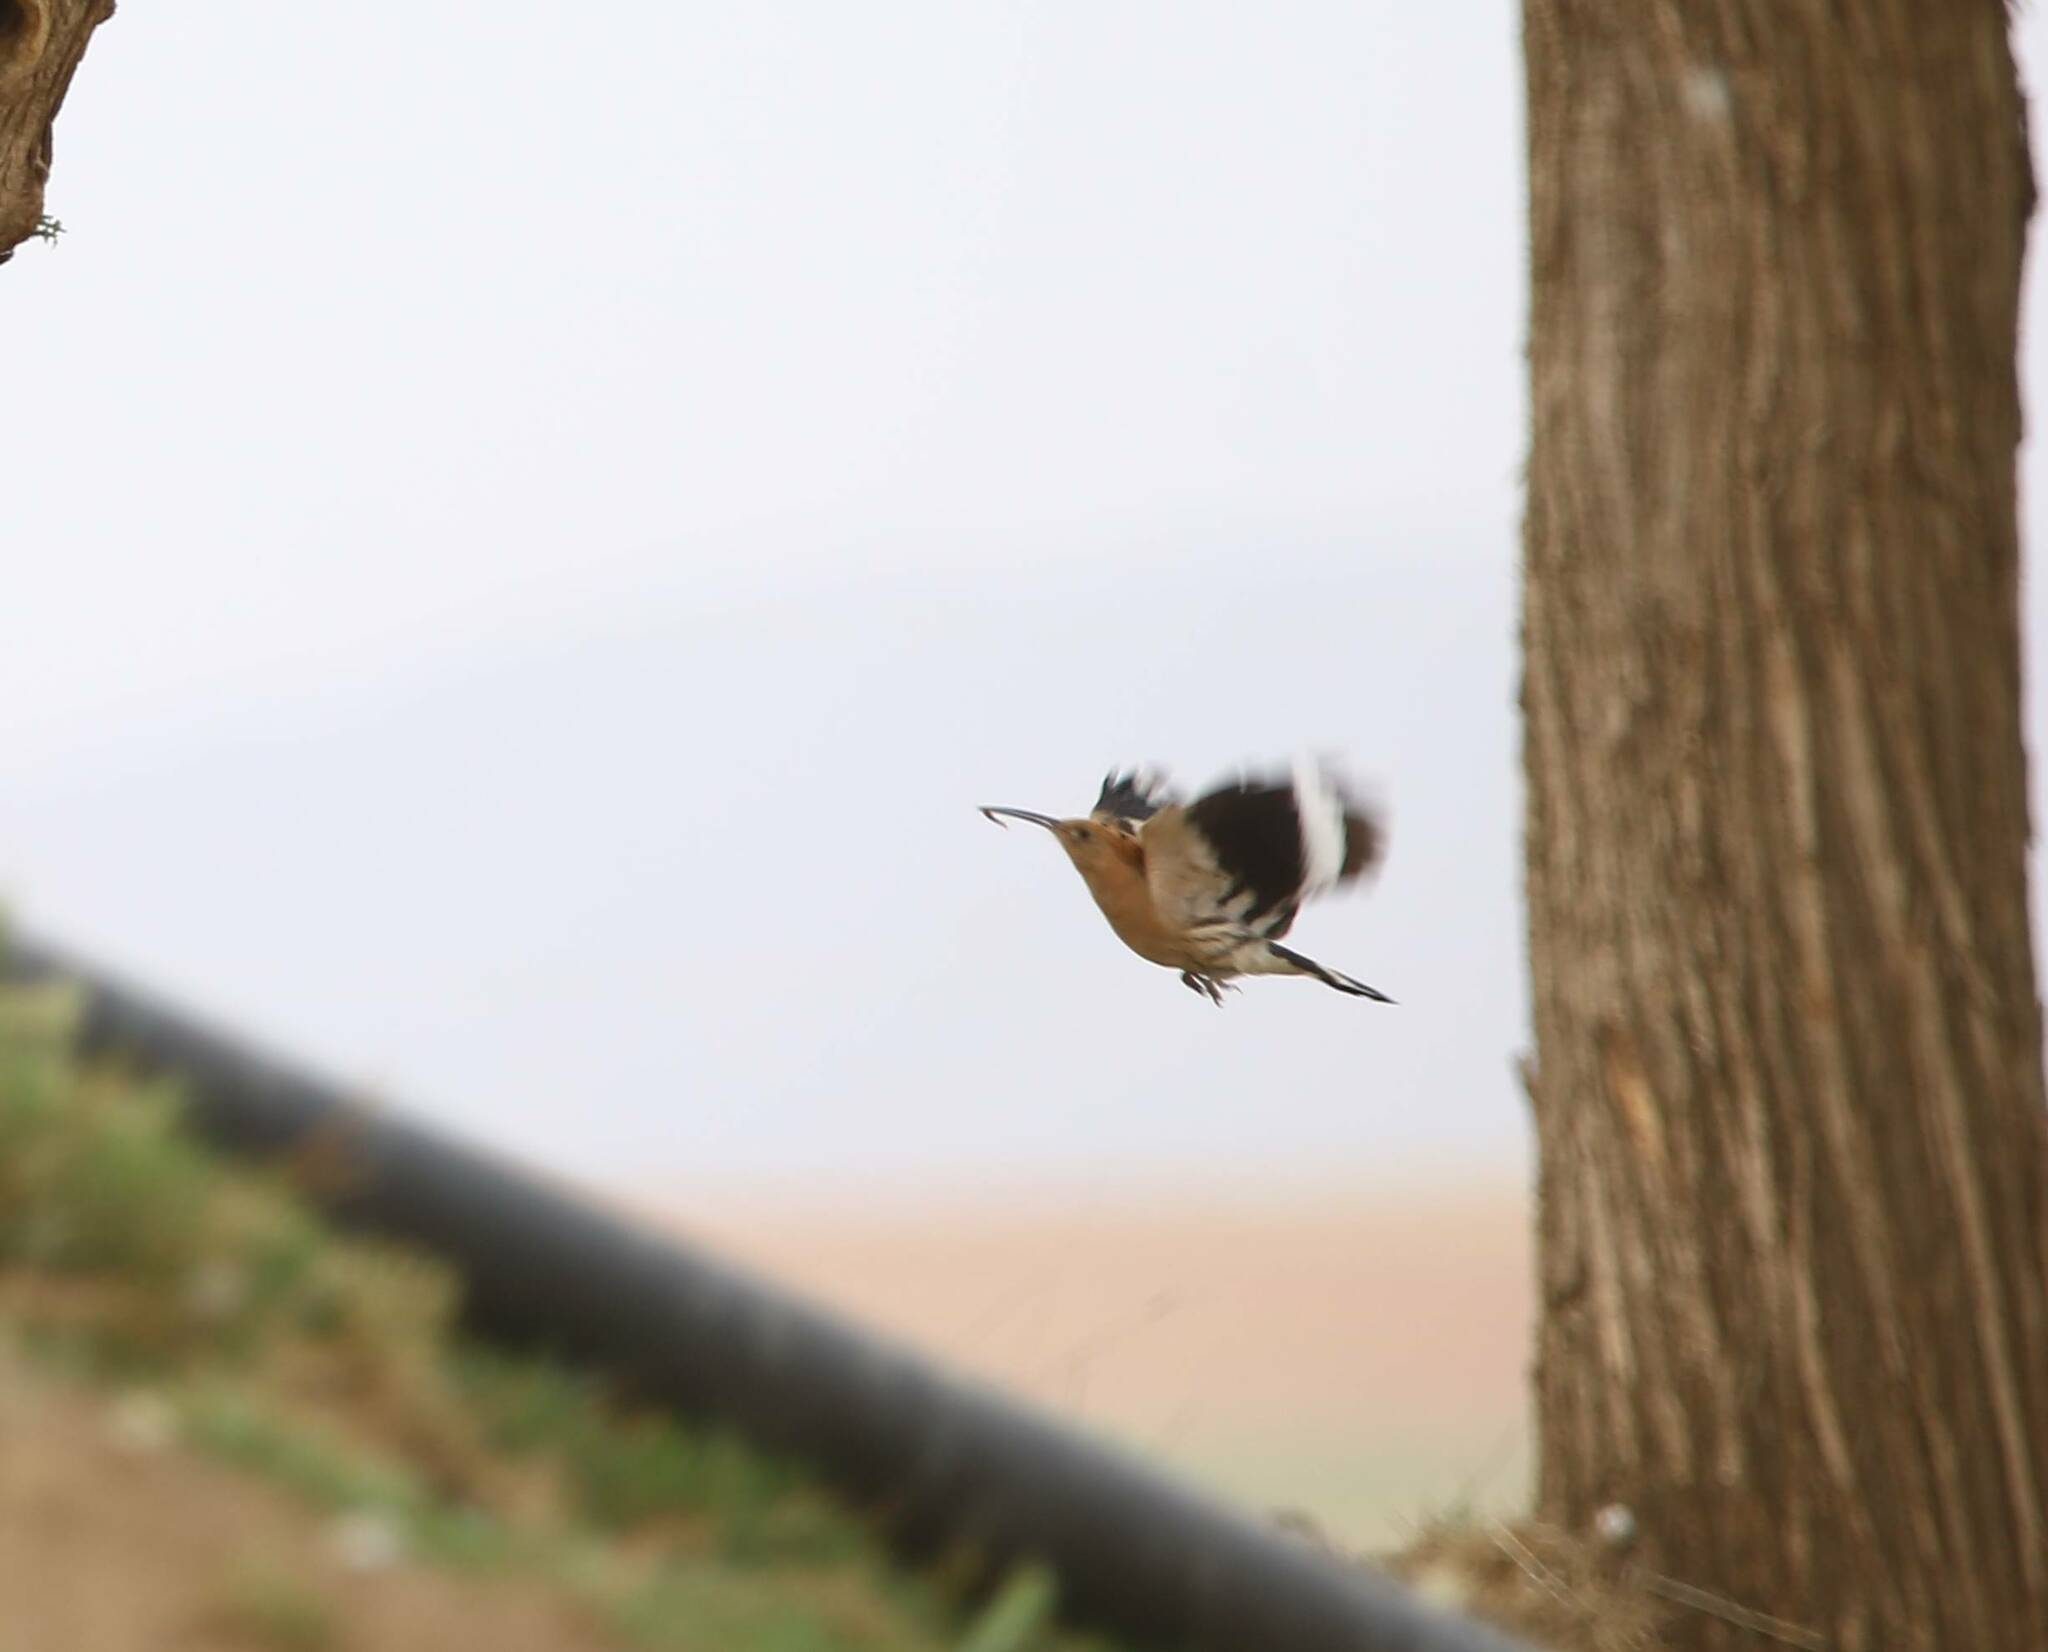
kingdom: Animalia
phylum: Chordata
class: Aves
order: Bucerotiformes
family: Upupidae
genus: Upupa
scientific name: Upupa epops
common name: Eurasian hoopoe
